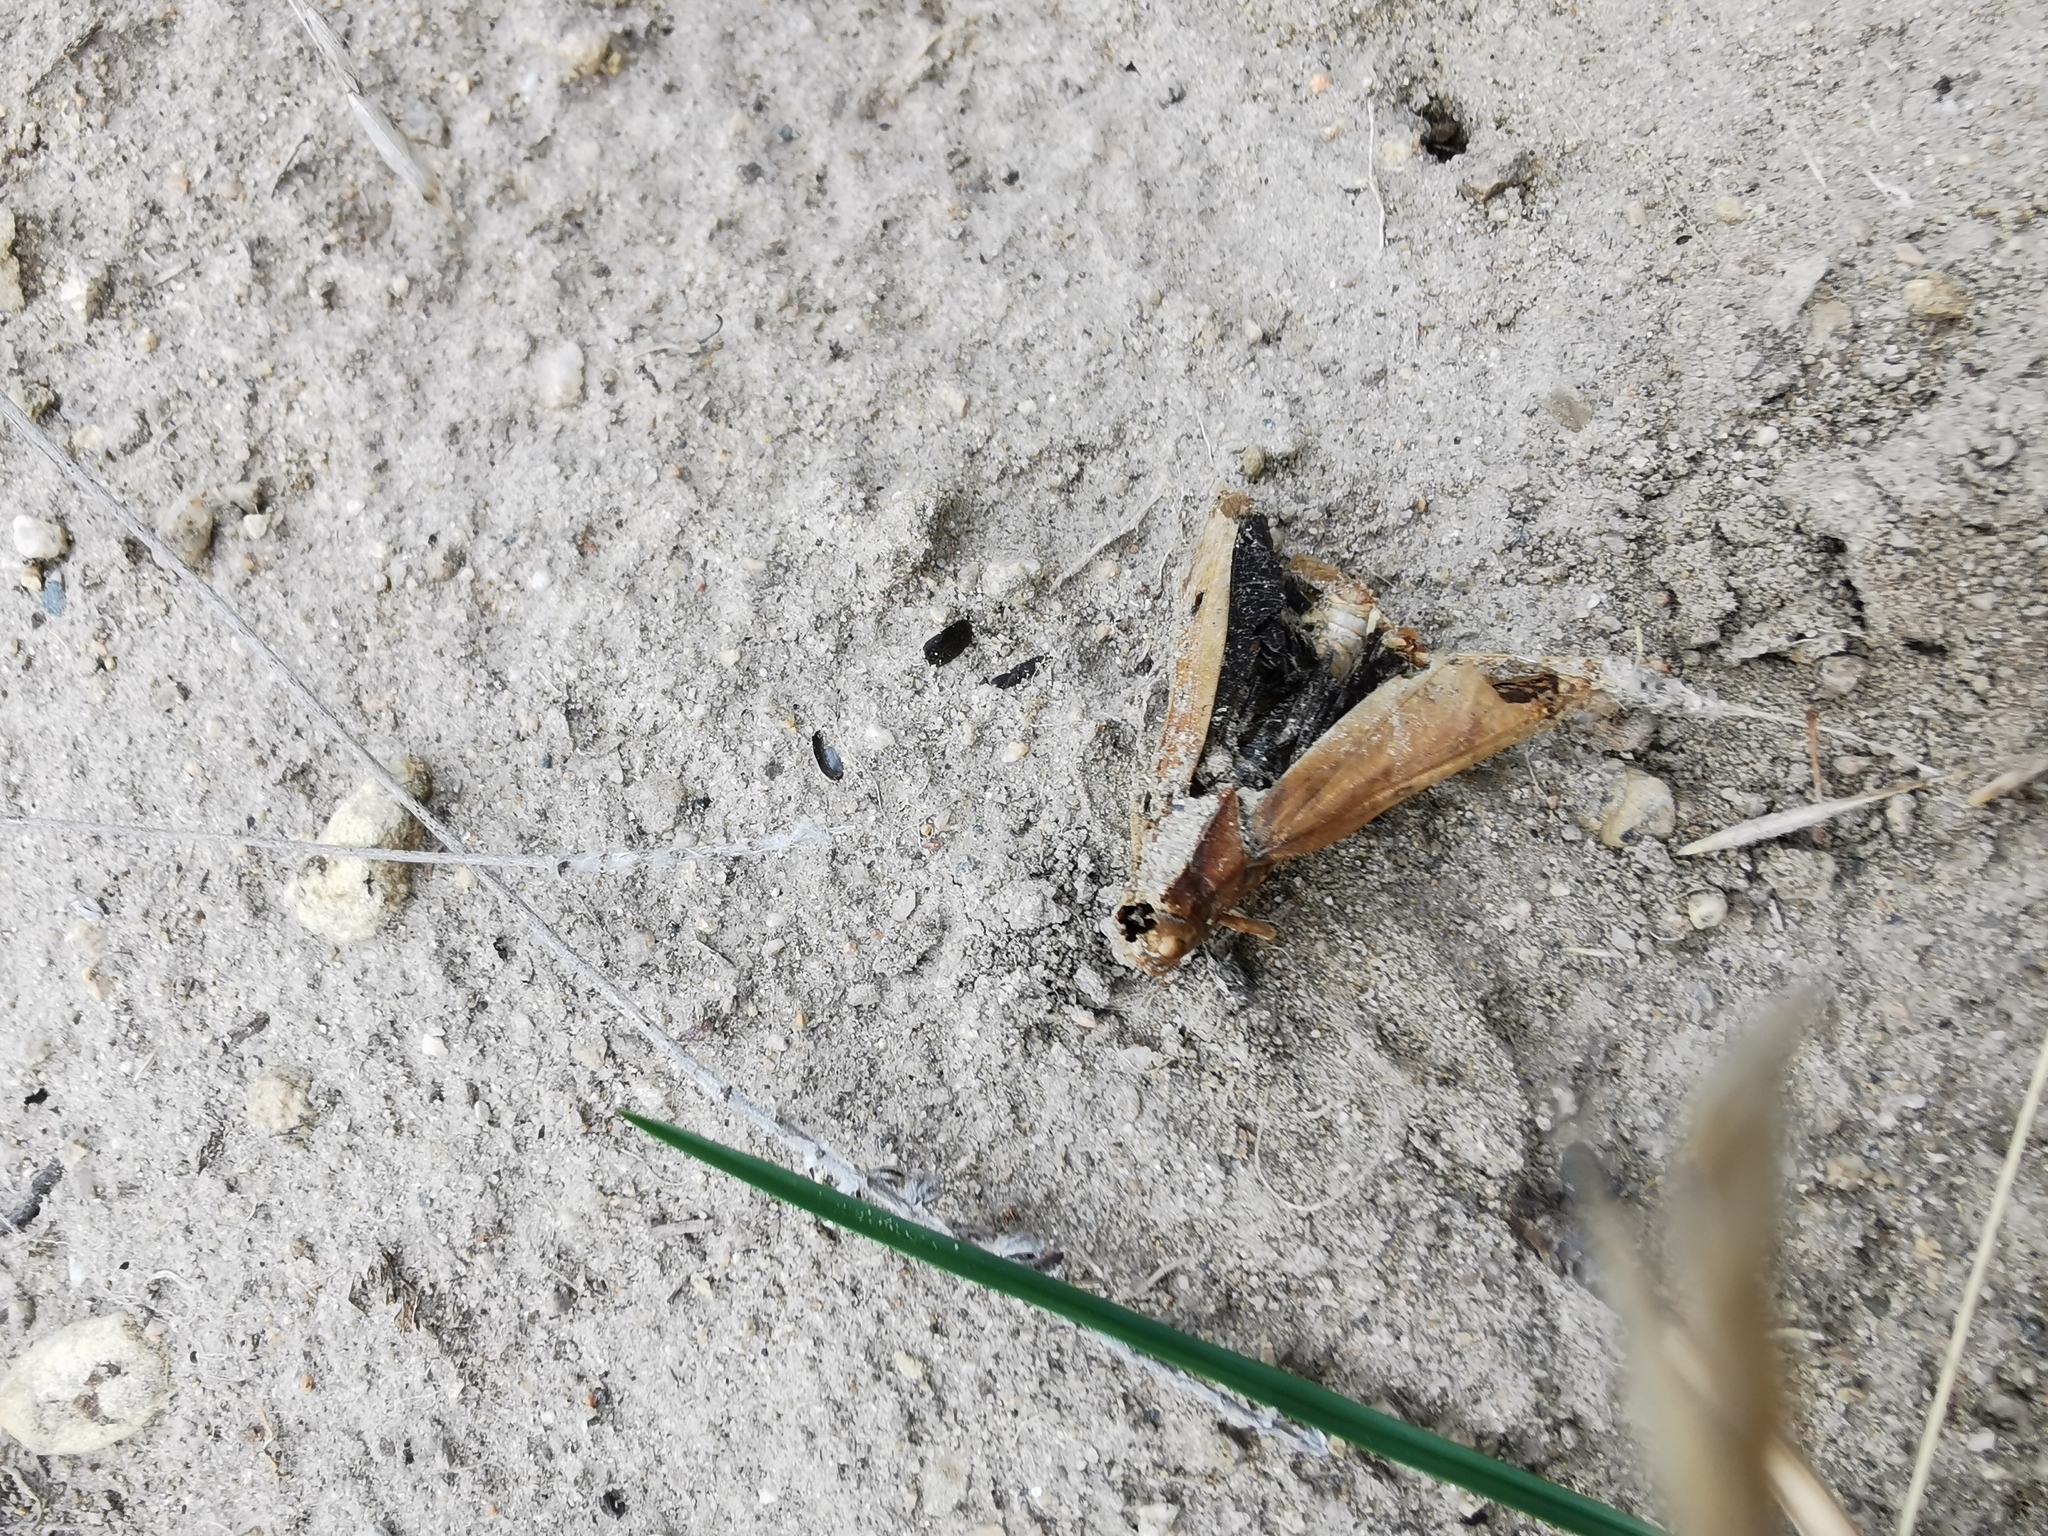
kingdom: Animalia
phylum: Arthropoda
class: Insecta
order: Orthoptera
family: Acrididae
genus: Dissosteira
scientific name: Dissosteira carolina
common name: Carolina grasshopper
